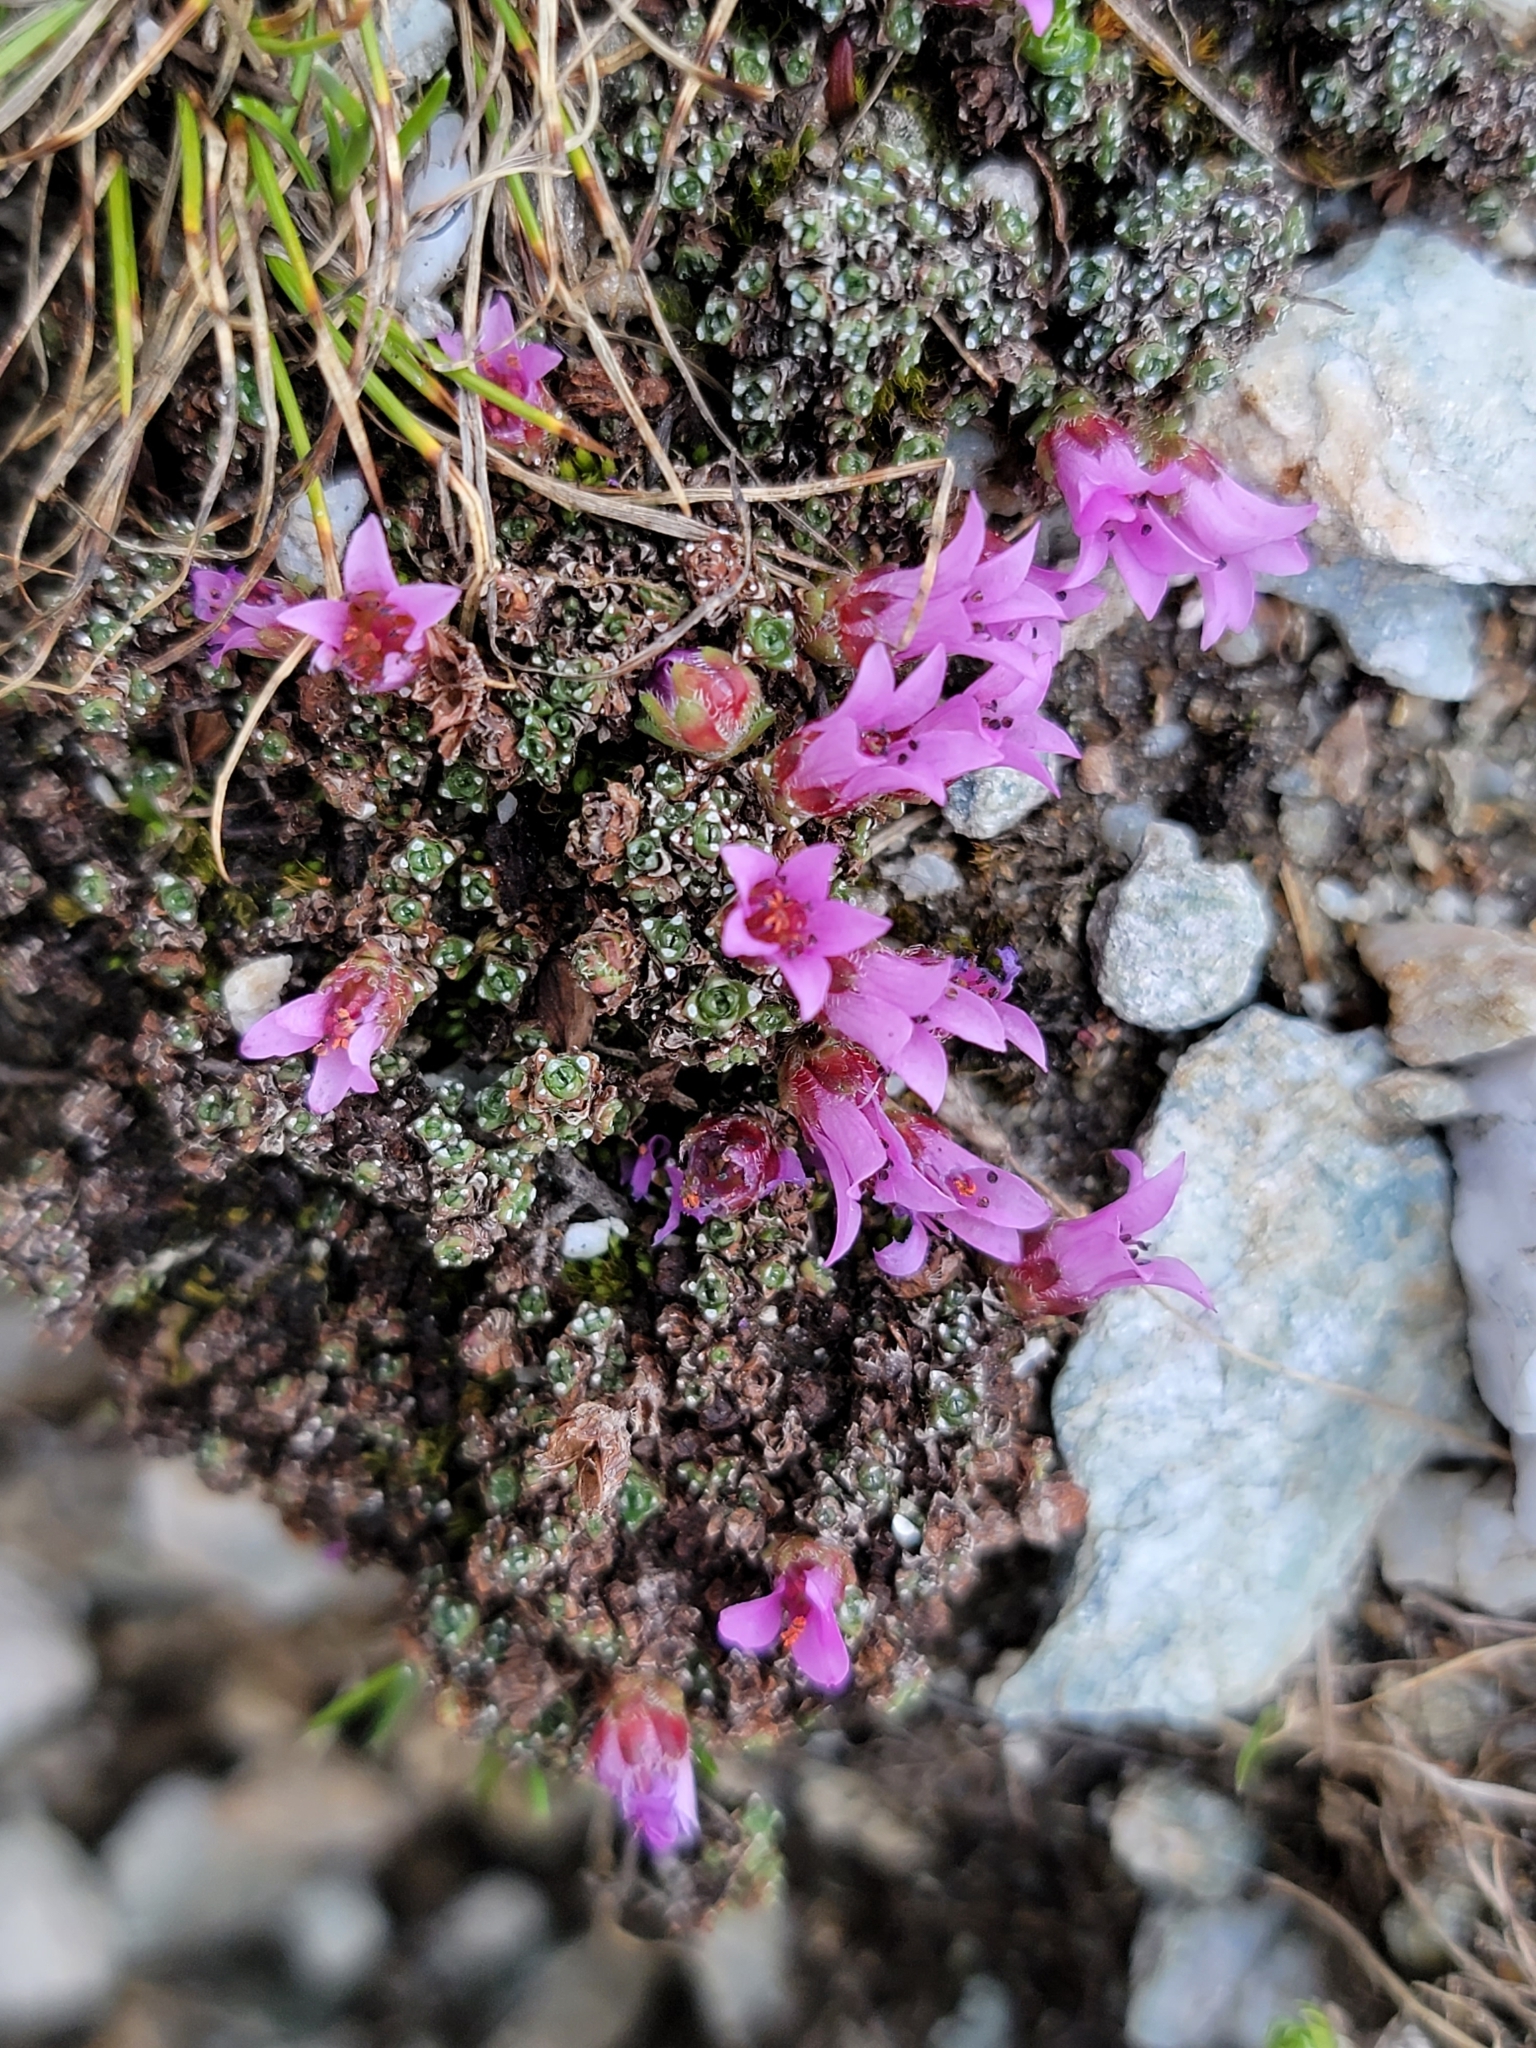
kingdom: Plantae
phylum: Tracheophyta
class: Magnoliopsida
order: Saxifragales
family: Saxifragaceae
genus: Saxifraga
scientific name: Saxifraga oppositifolia
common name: Purple saxifrage
